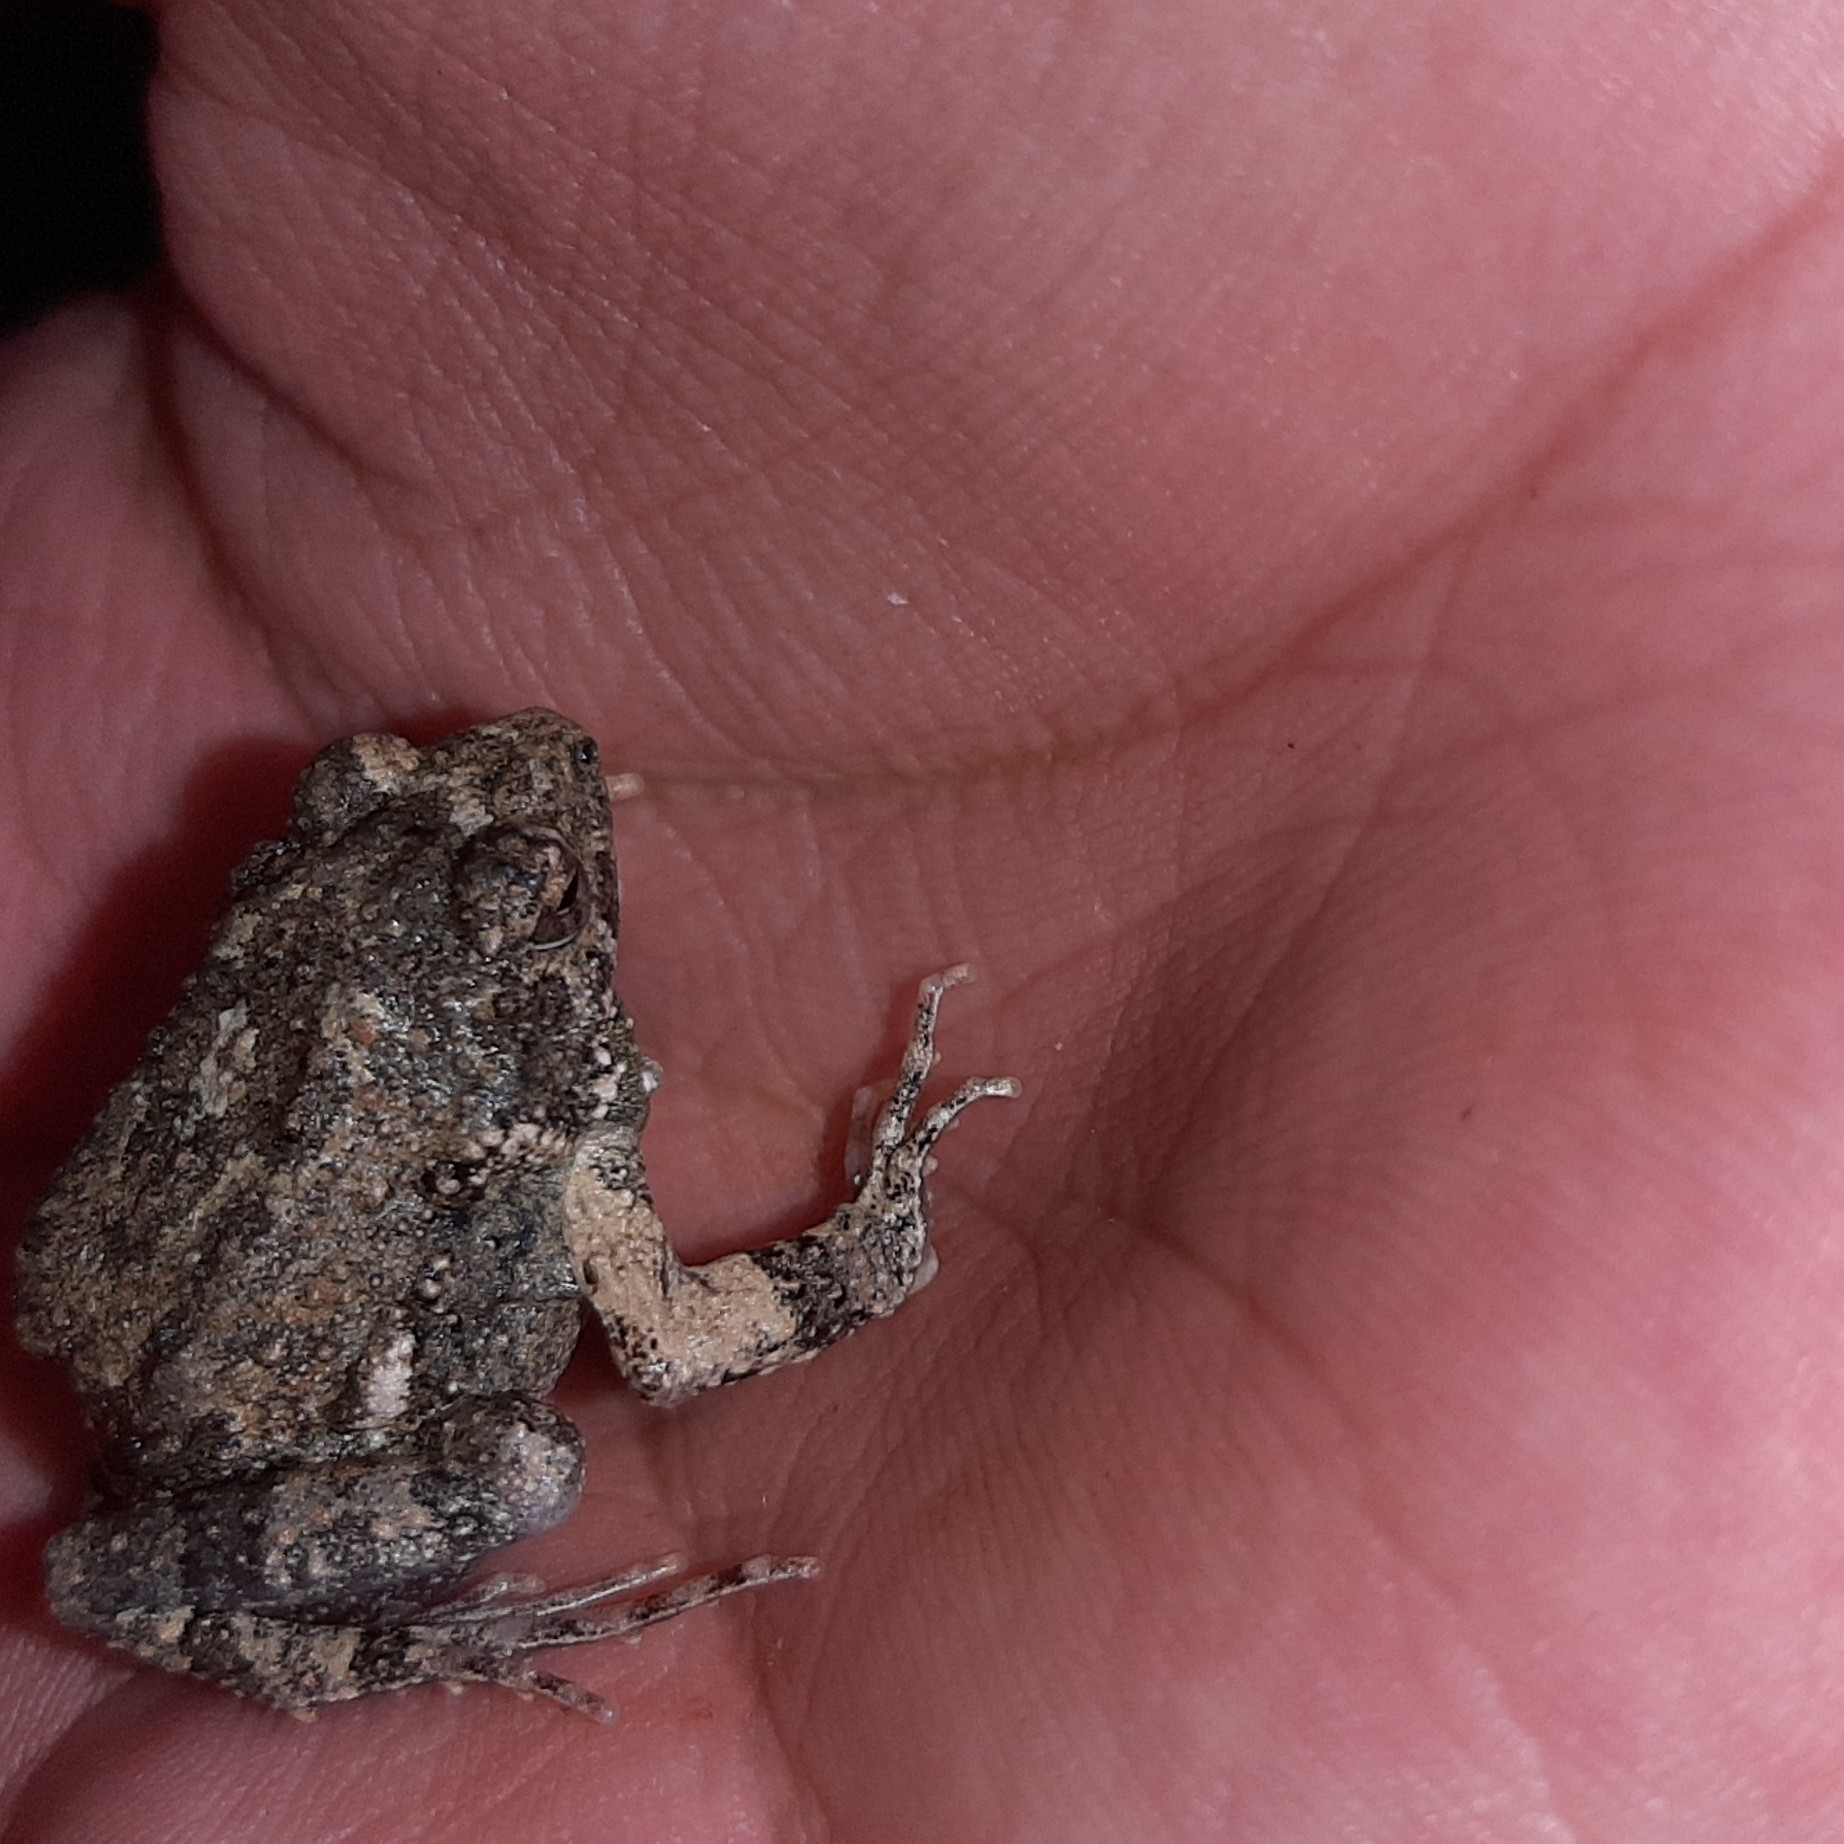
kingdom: Animalia
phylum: Chordata
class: Amphibia
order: Anura
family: Leptodactylidae
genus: Engystomops
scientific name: Engystomops pustulosus
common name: Tungara frog
